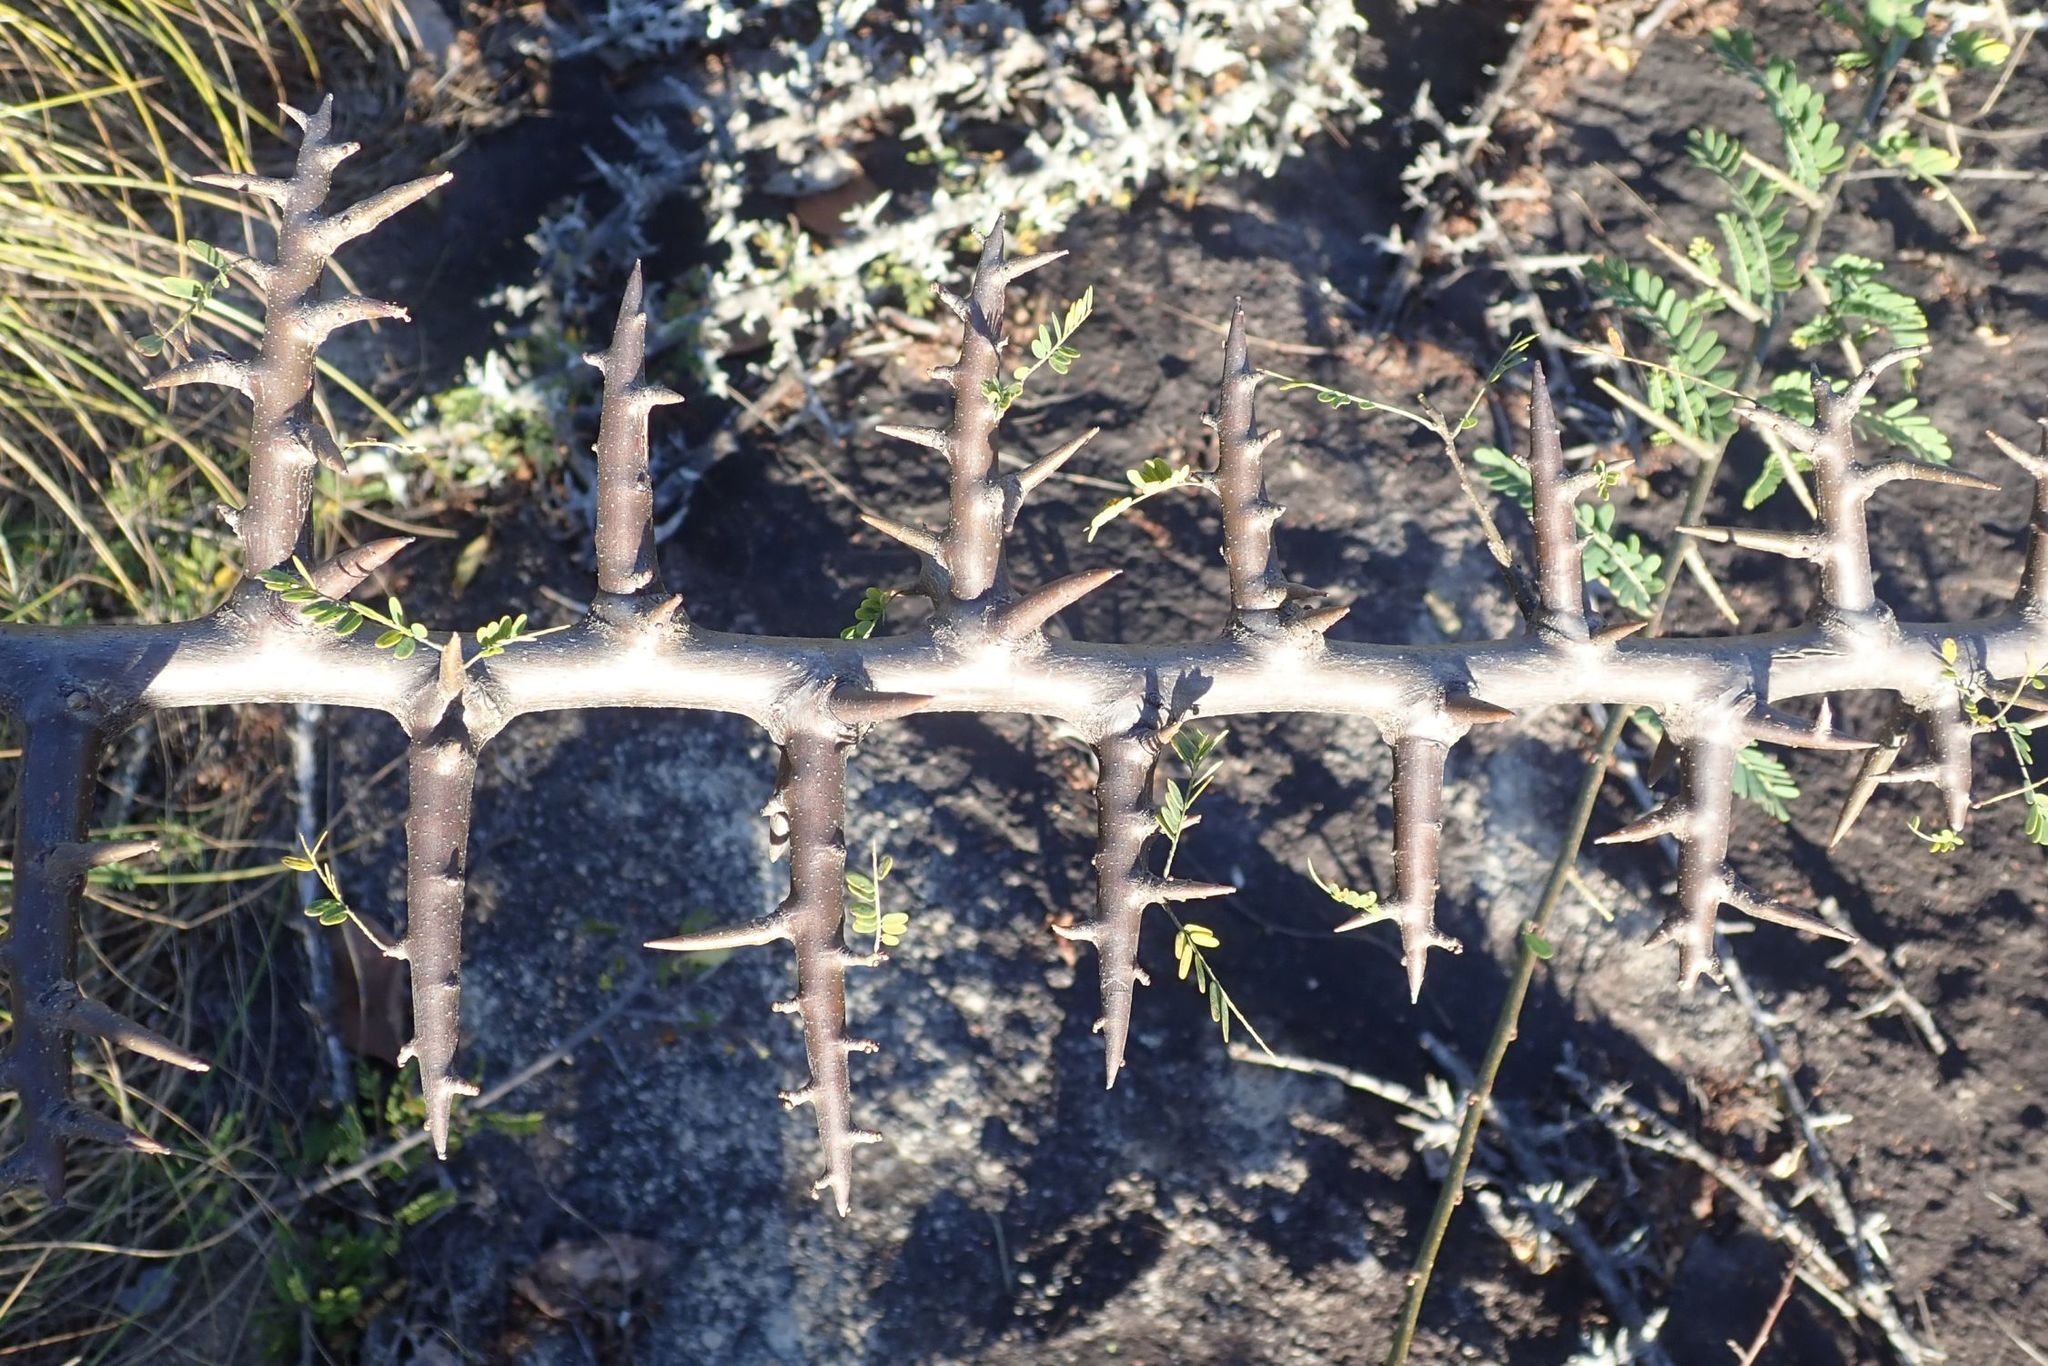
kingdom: Plantae
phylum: Tracheophyta
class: Magnoliopsida
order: Fabales
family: Fabaceae
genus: Dalbergia
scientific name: Dalbergia armata
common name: Hluhluwe climber
